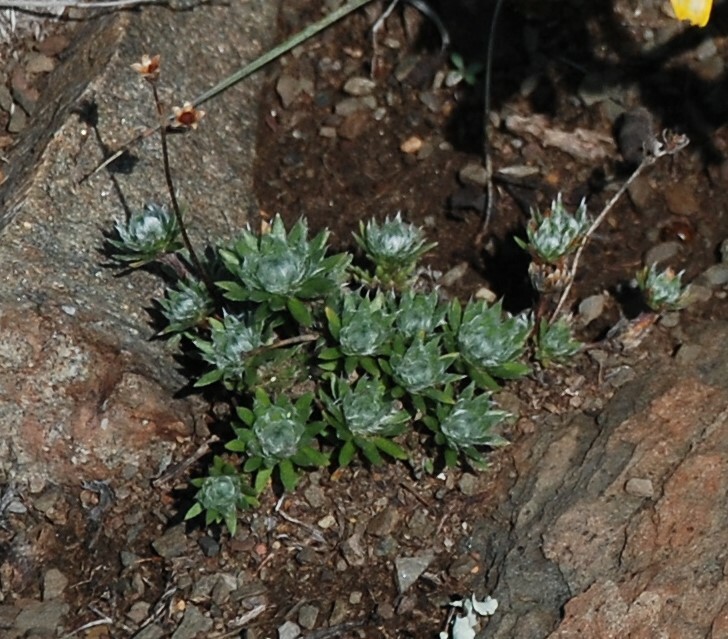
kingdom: Plantae
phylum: Tracheophyta
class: Magnoliopsida
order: Ericales
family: Primulaceae
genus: Androsace
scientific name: Androsace incana
